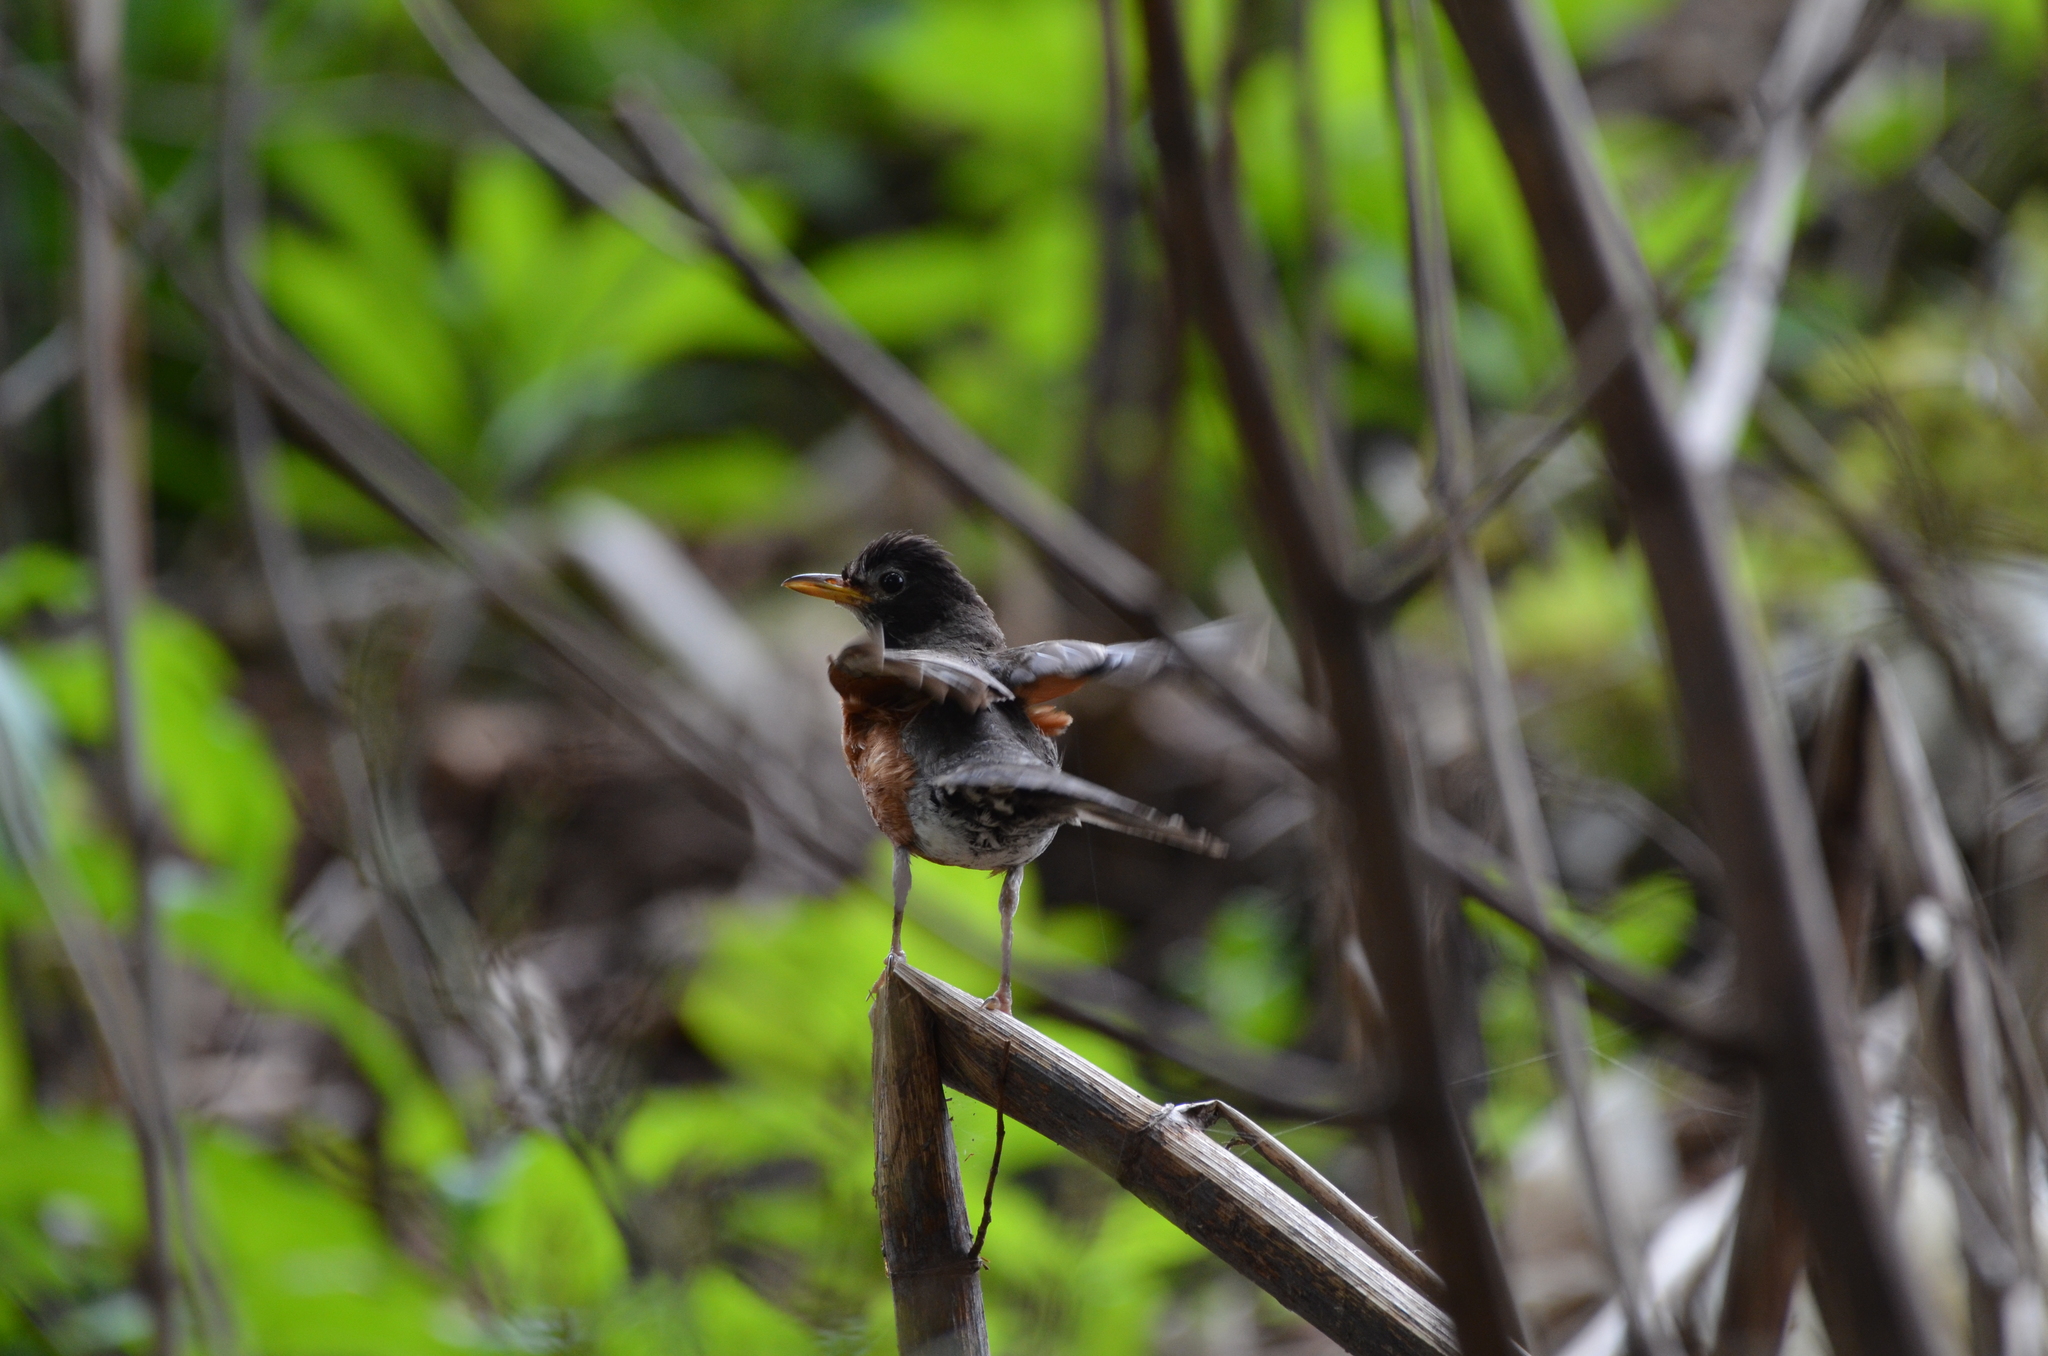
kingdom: Animalia
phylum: Chordata
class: Aves
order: Passeriformes
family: Turdidae
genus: Turdus
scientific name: Turdus migratorius
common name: American robin
